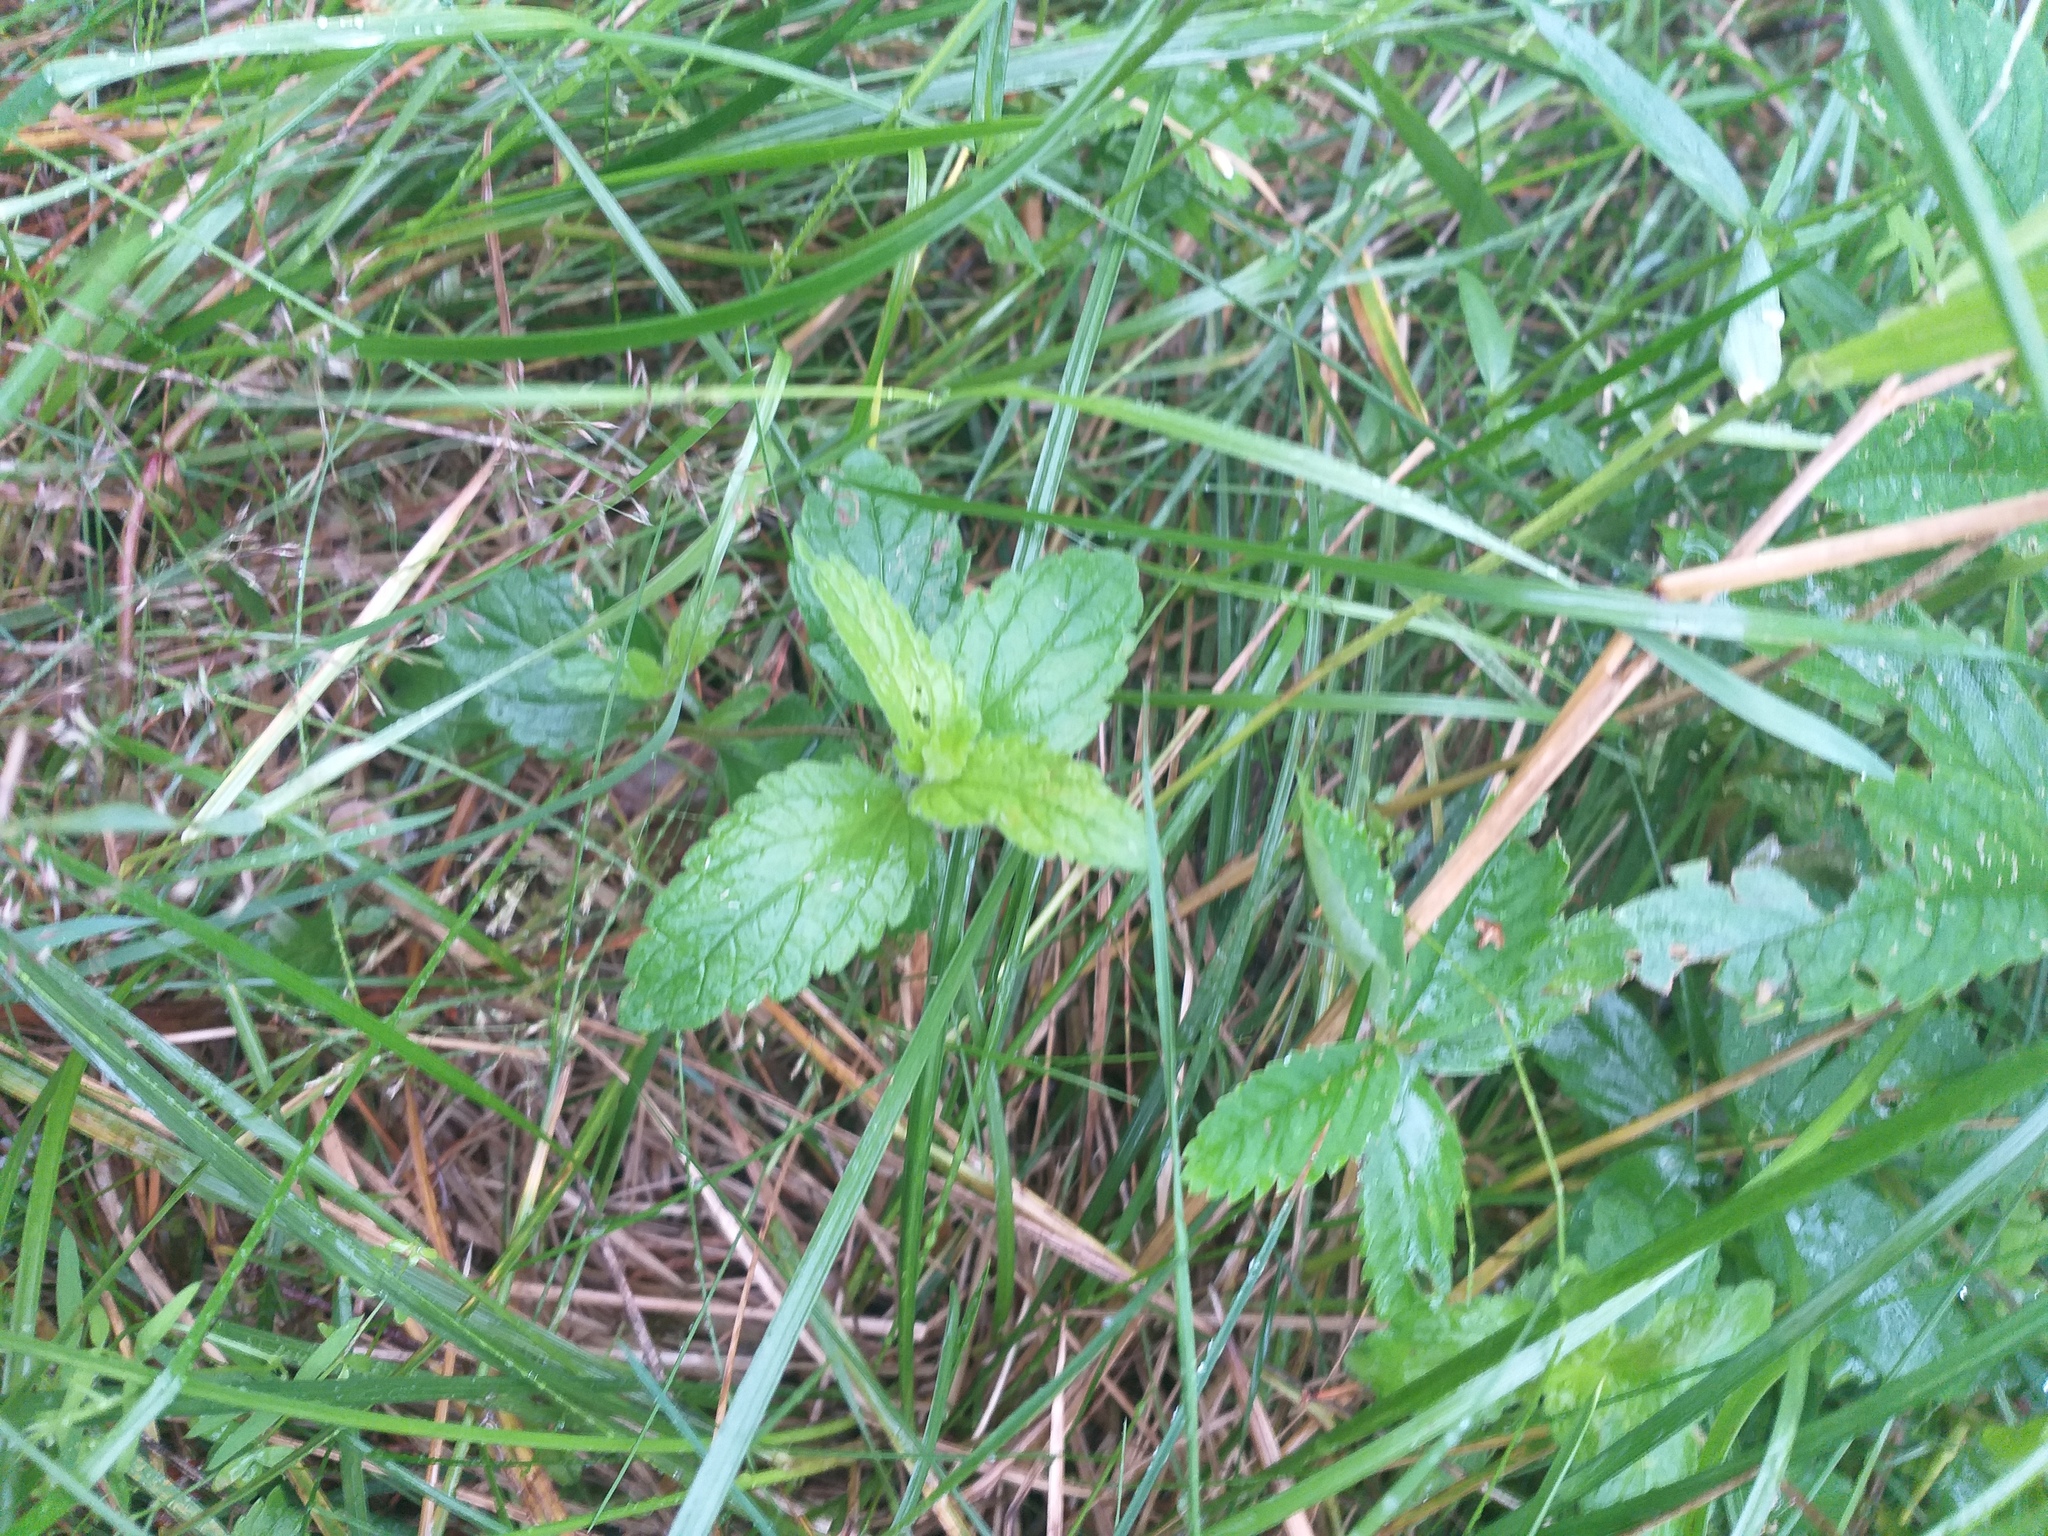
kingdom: Plantae
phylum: Tracheophyta
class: Magnoliopsida
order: Lamiales
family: Plantaginaceae
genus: Veronica
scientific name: Veronica chamaedrys
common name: Germander speedwell
